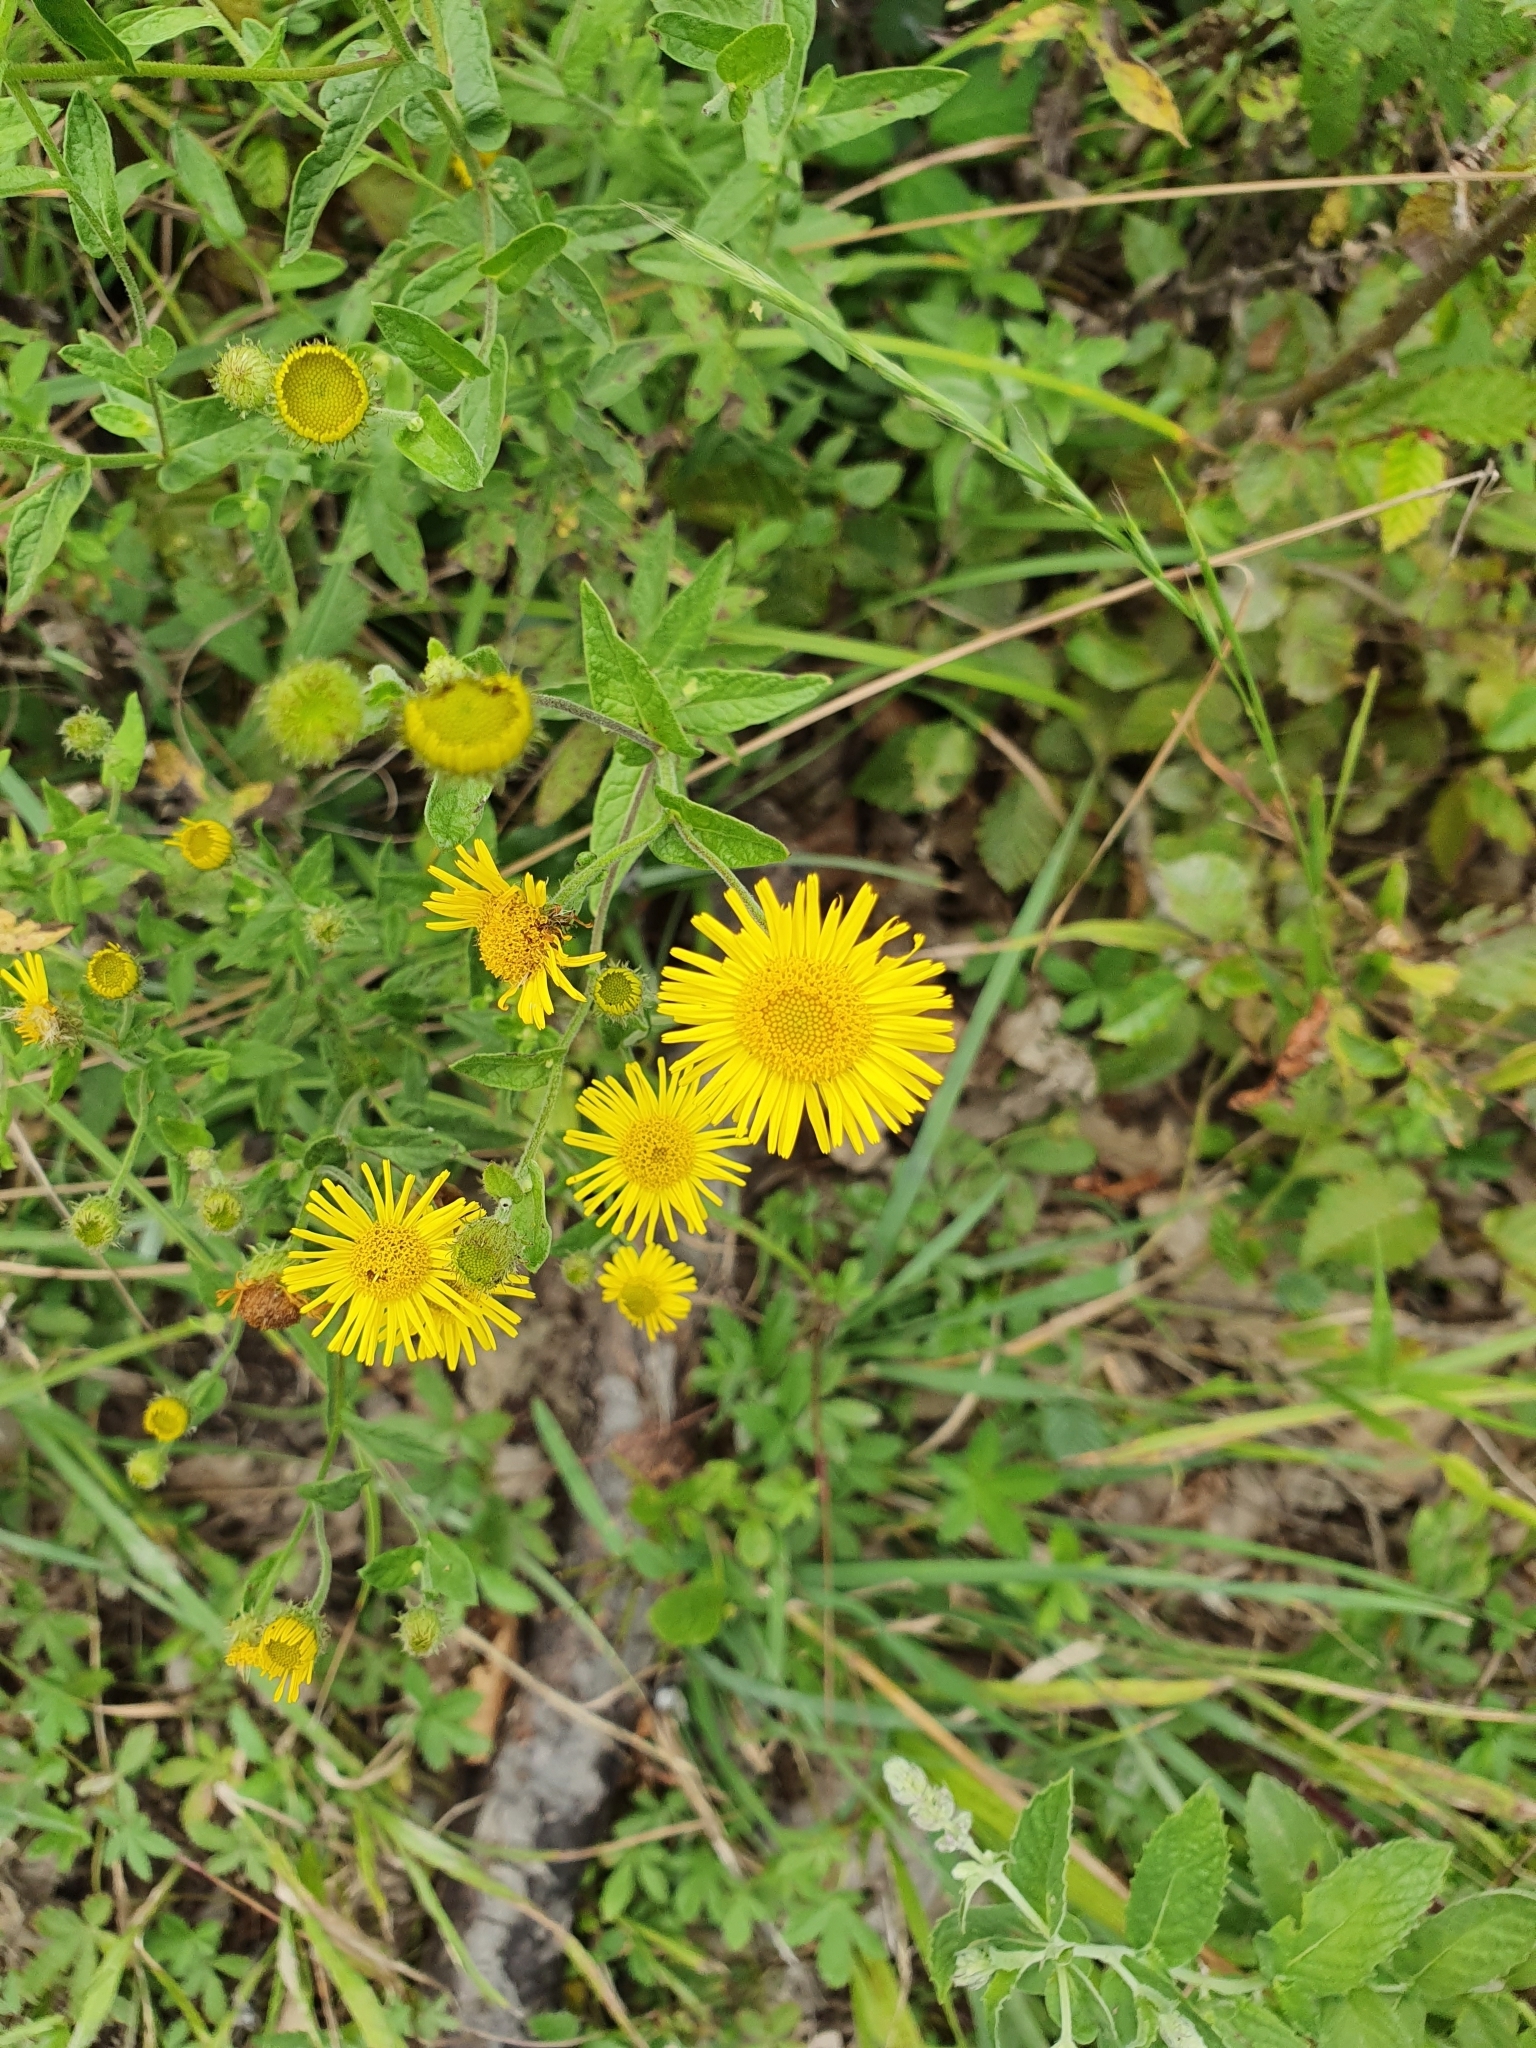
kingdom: Plantae
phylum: Tracheophyta
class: Magnoliopsida
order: Asterales
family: Asteraceae
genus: Pulicaria
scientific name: Pulicaria dysenterica
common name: Common fleabane
